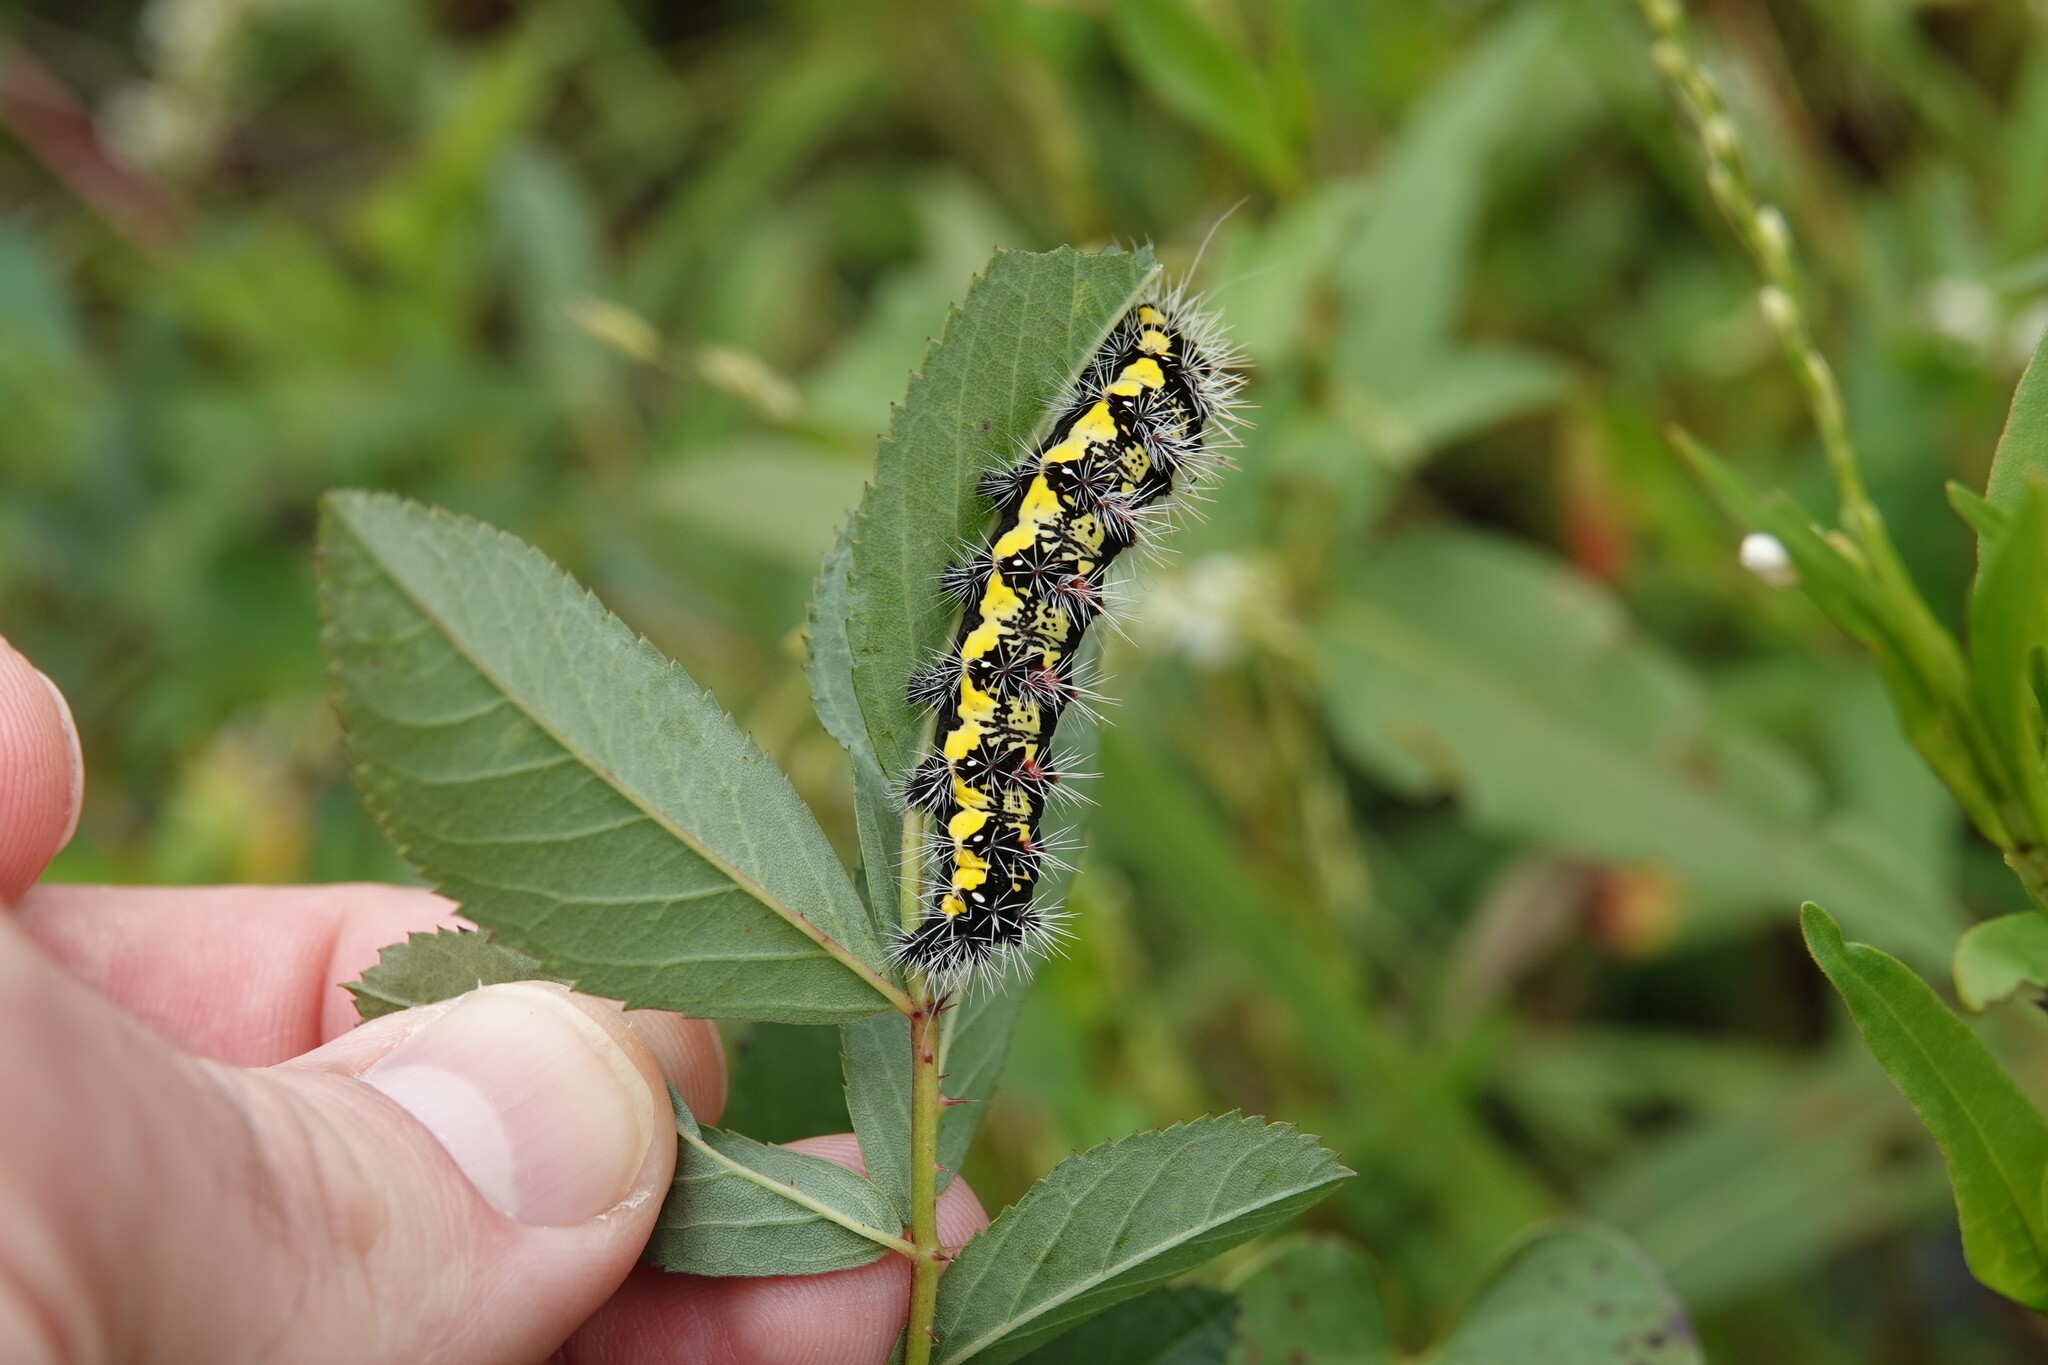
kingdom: Animalia
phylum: Arthropoda
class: Insecta
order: Lepidoptera
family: Noctuidae
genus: Acronicta
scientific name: Acronicta oblinita
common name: Smeared dagger
